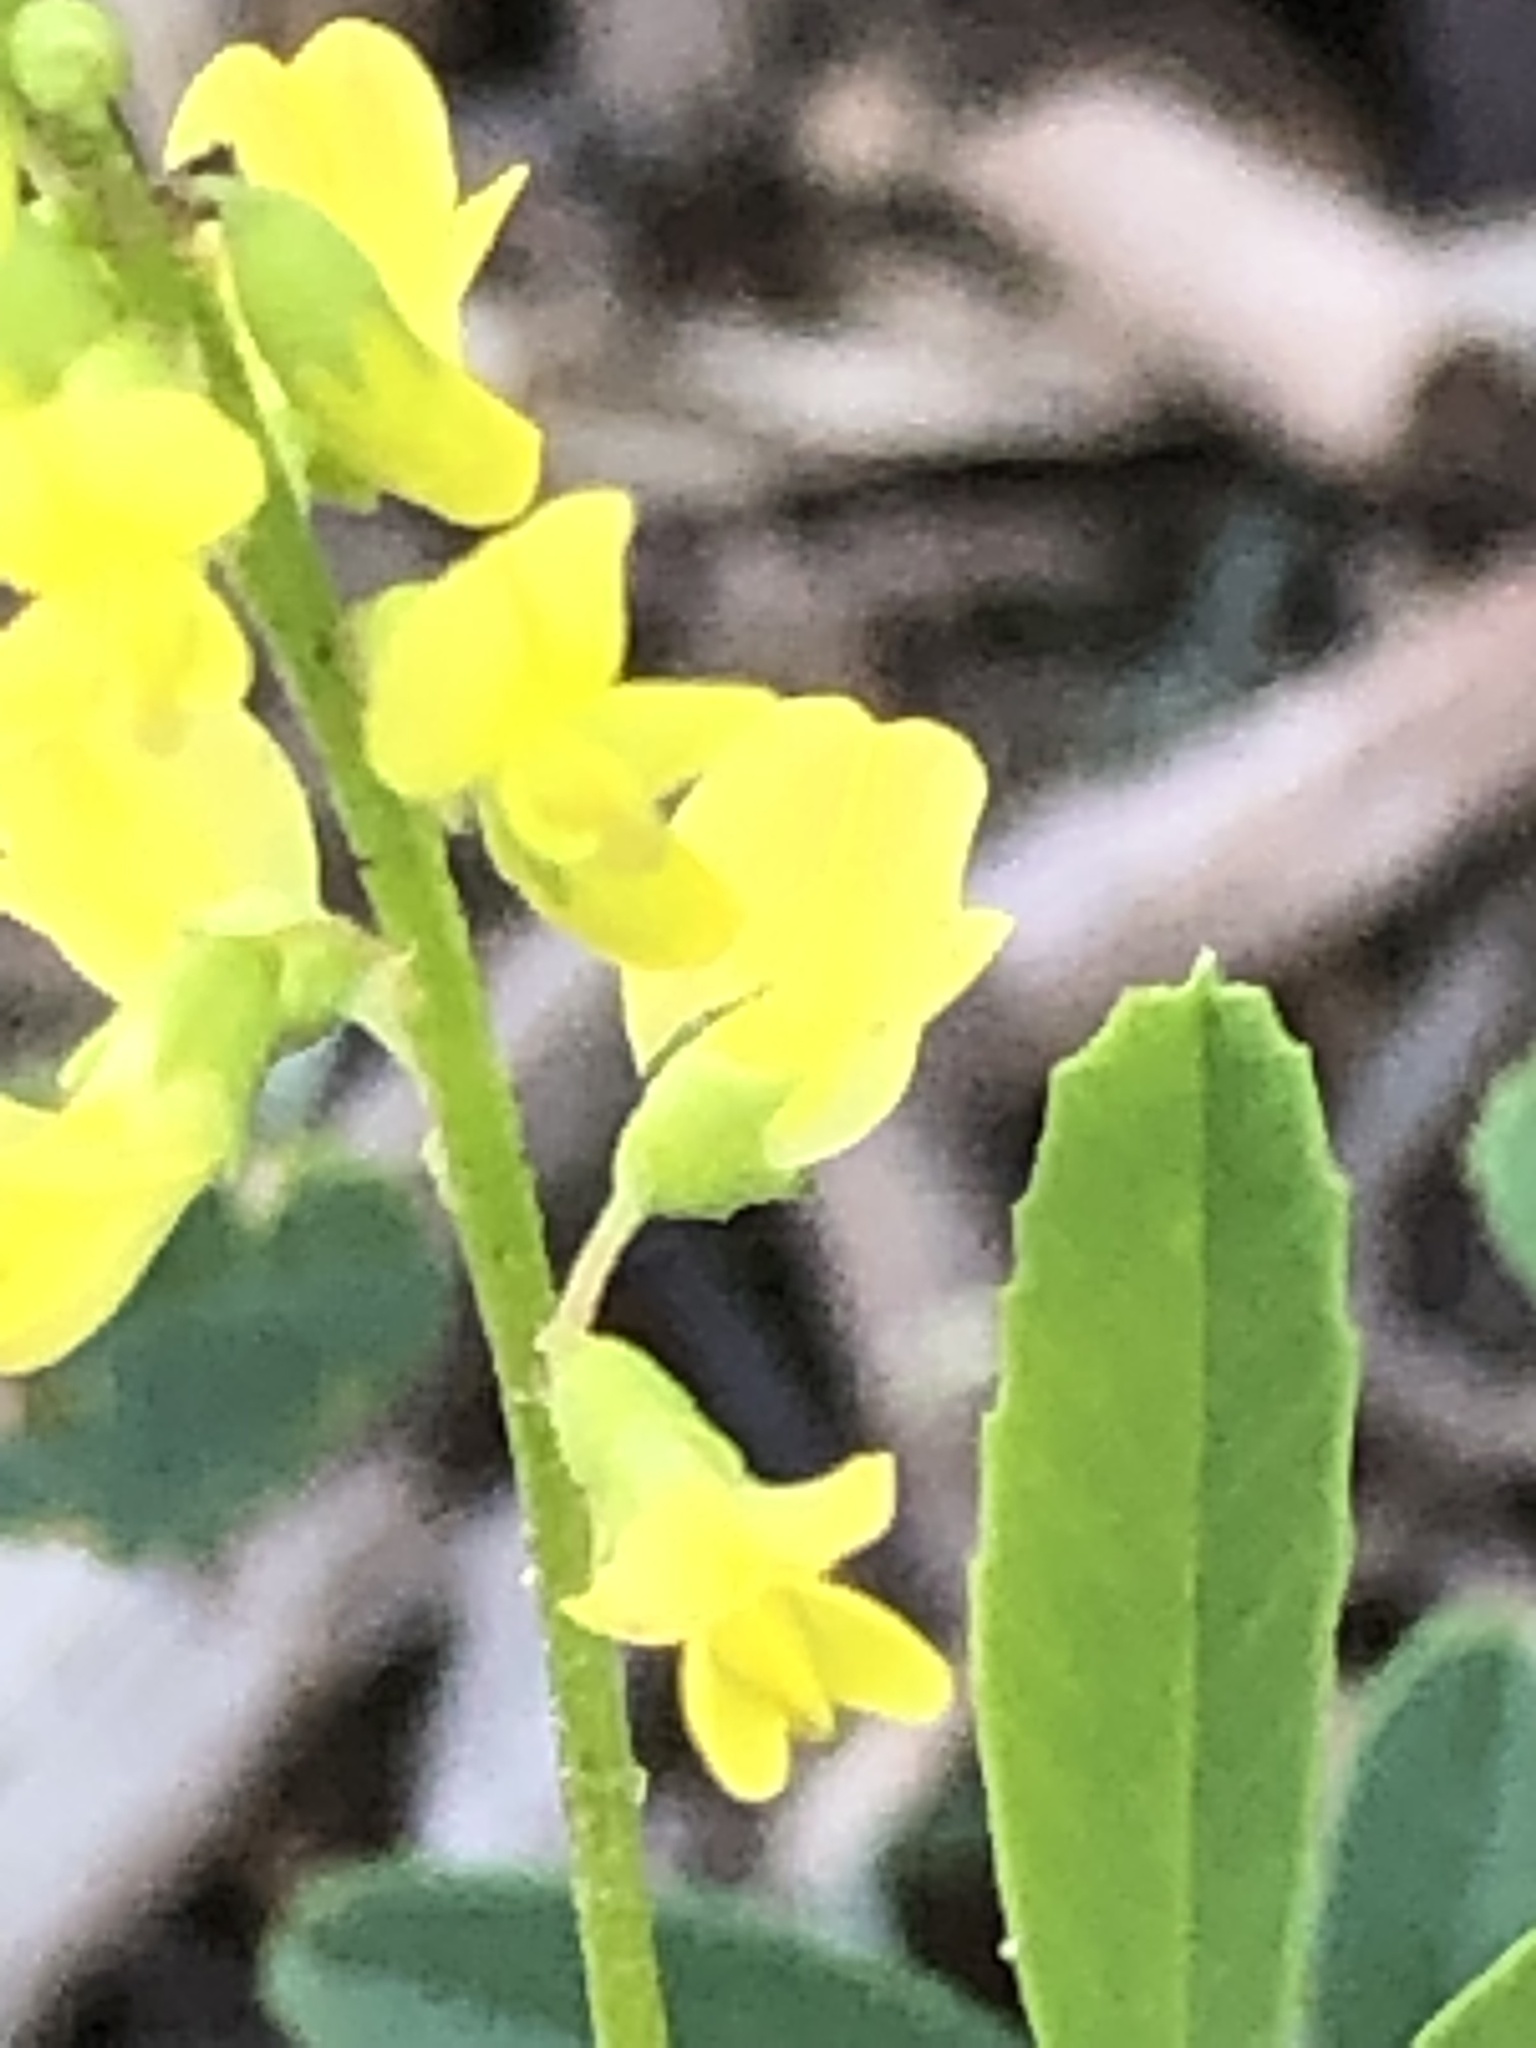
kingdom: Plantae
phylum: Tracheophyta
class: Magnoliopsida
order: Fabales
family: Fabaceae
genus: Melilotus
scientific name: Melilotus officinalis
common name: Sweetclover
